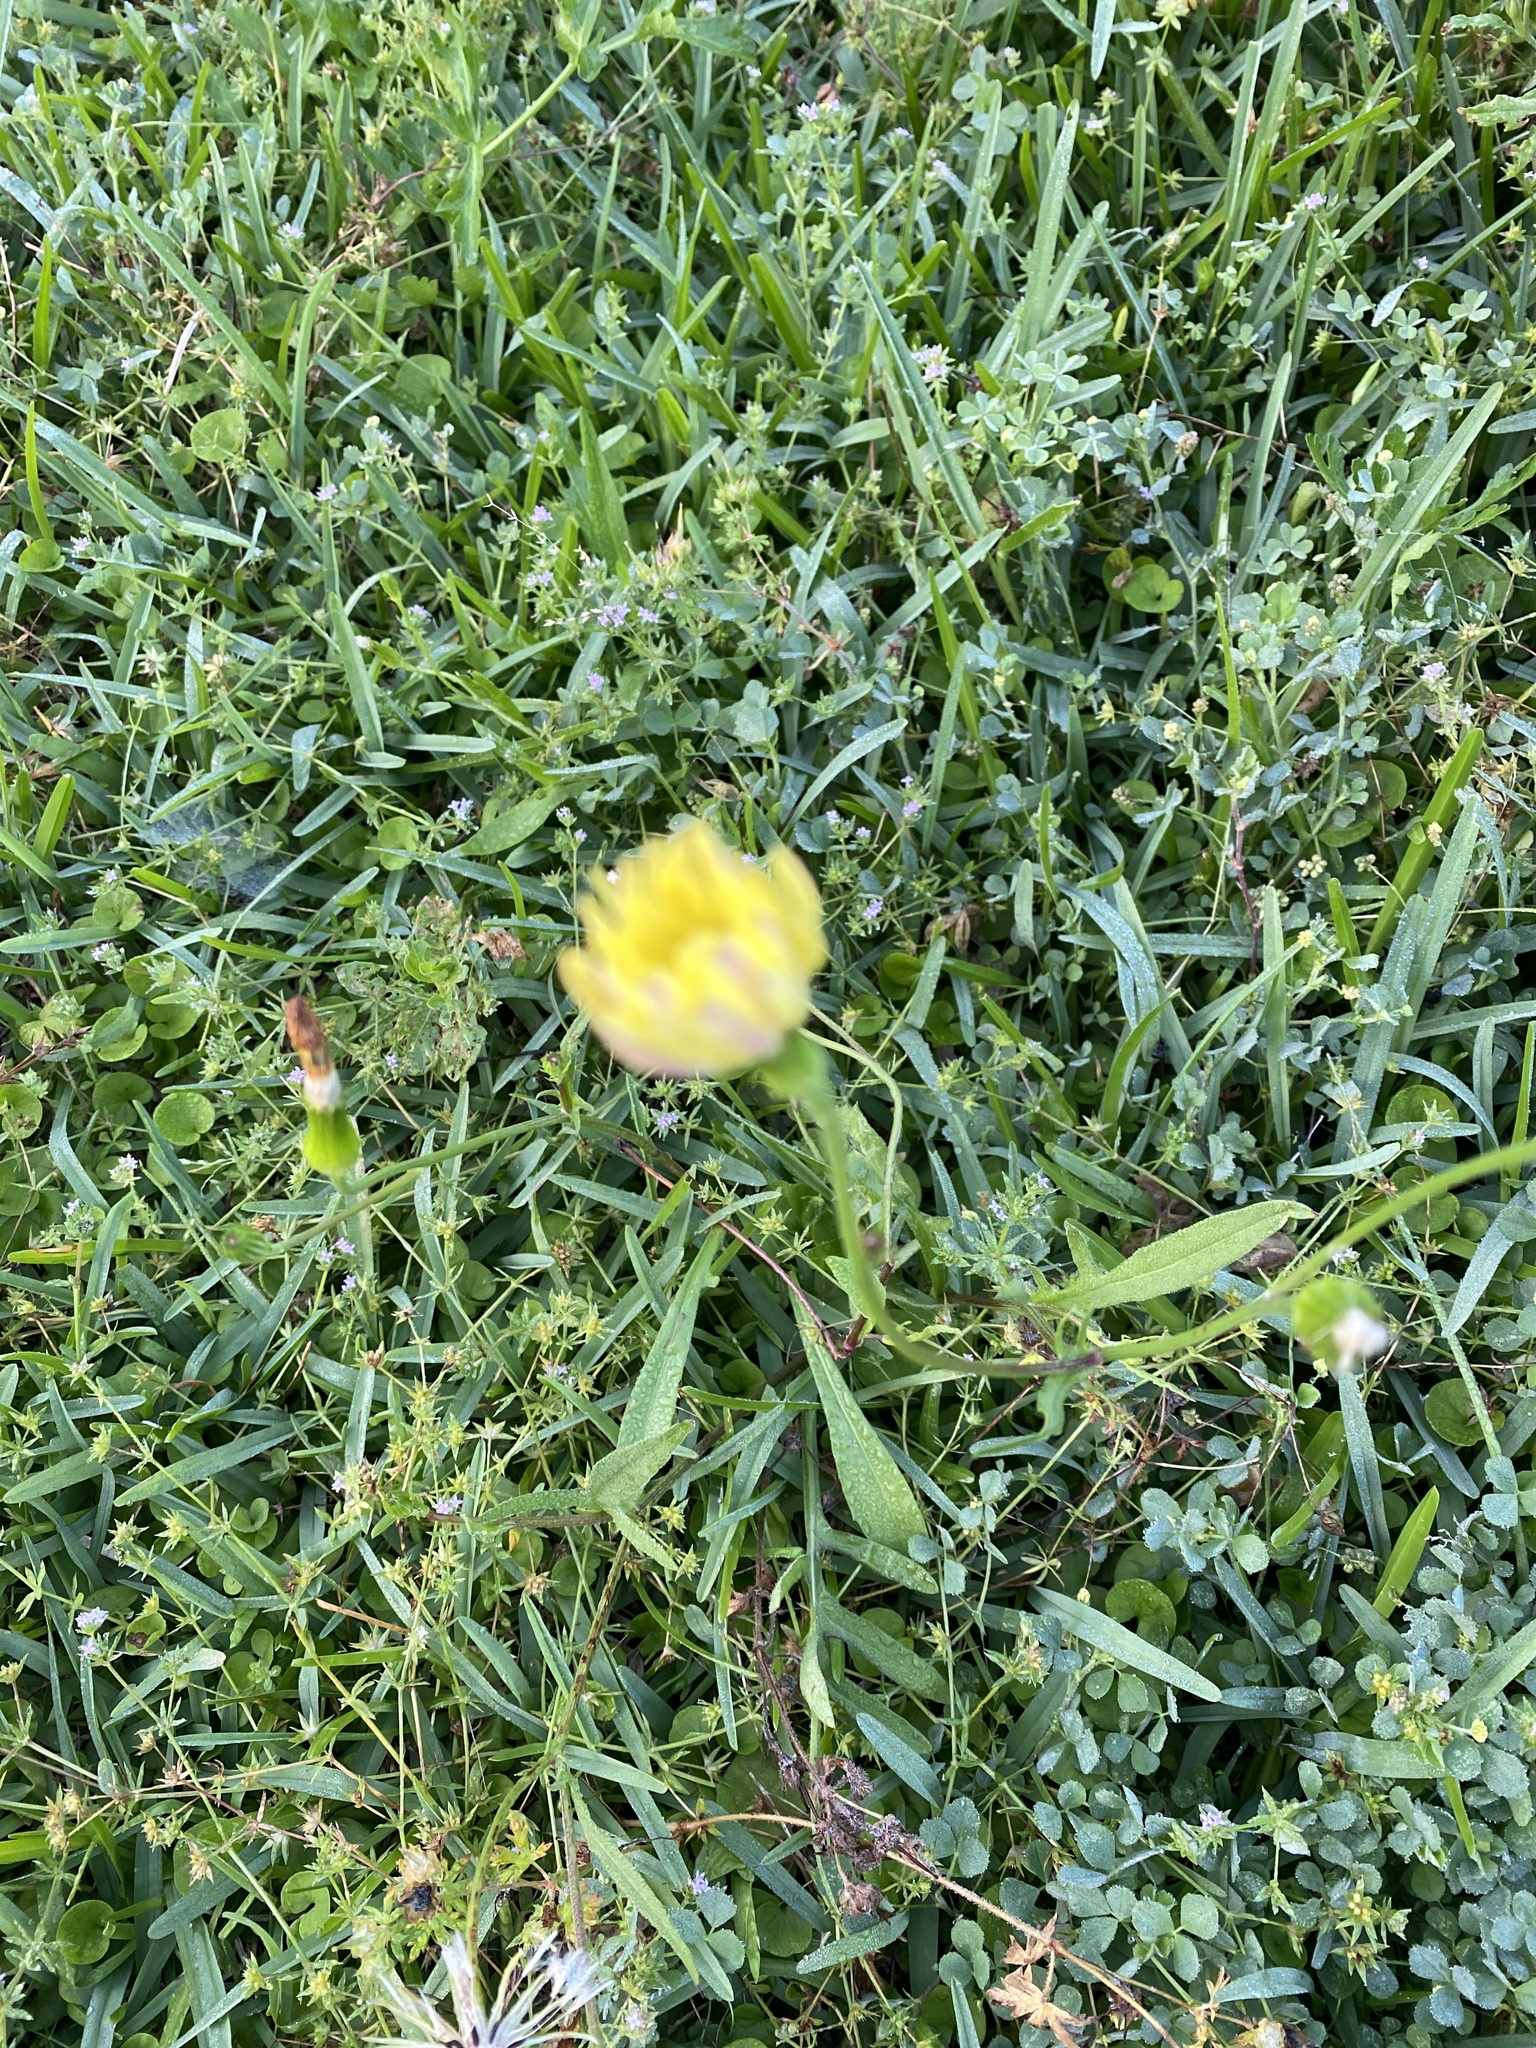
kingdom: Plantae
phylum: Tracheophyta
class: Magnoliopsida
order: Asterales
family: Asteraceae
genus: Pyrrhopappus
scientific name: Pyrrhopappus pauciflorus
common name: Texas false dandelion
